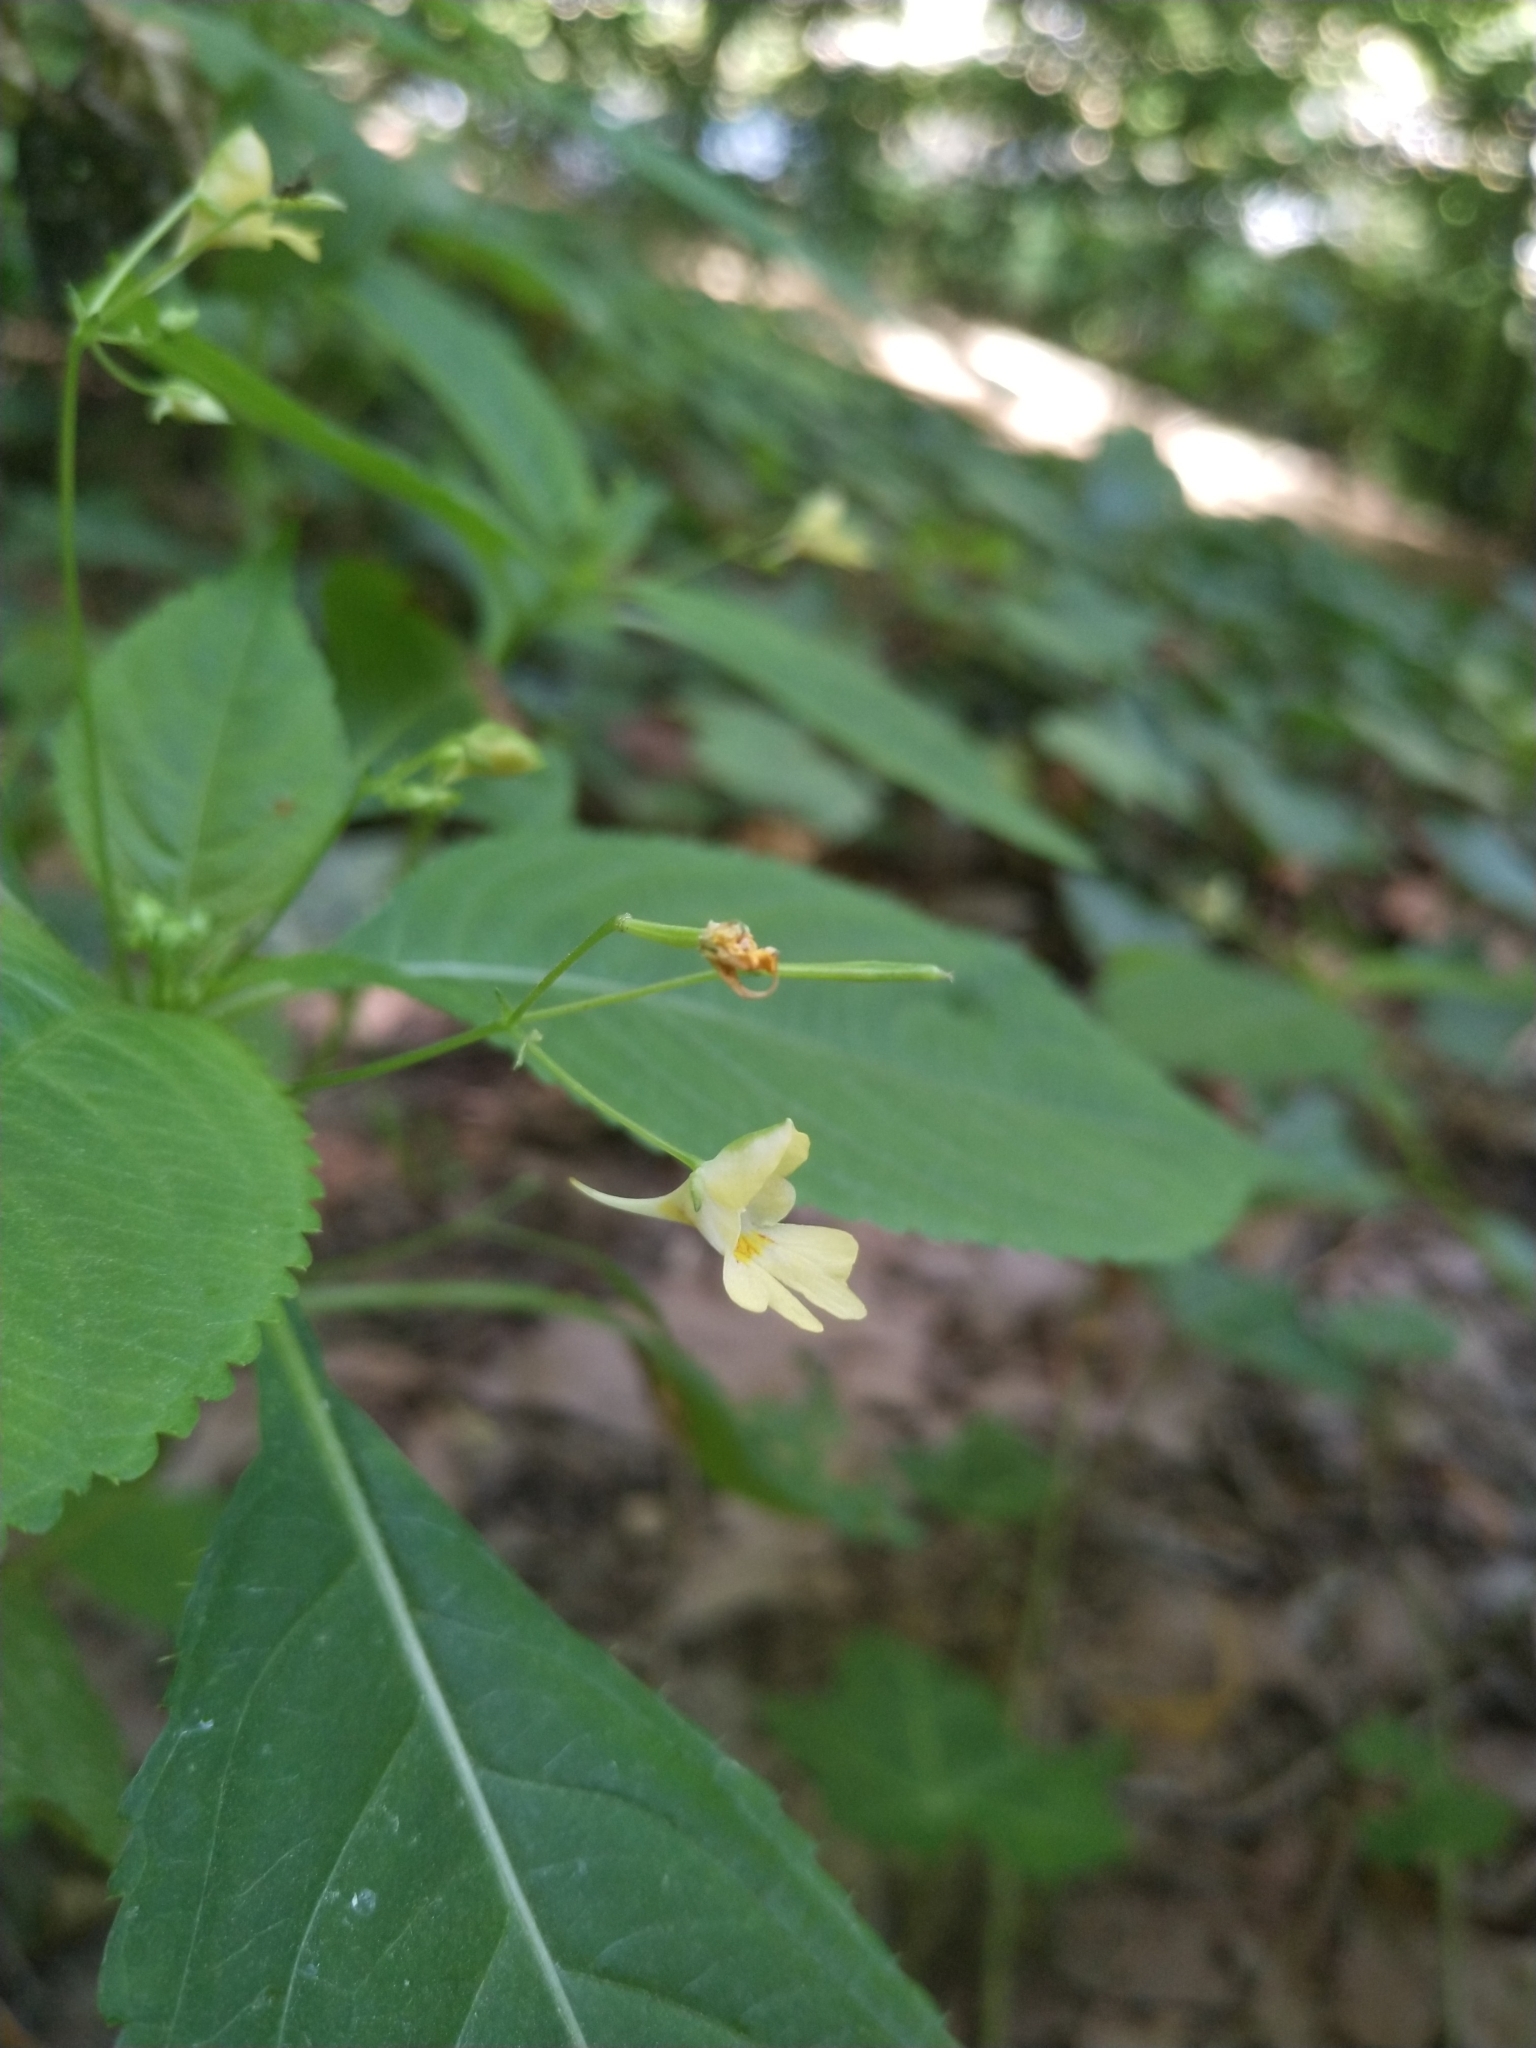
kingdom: Plantae
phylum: Tracheophyta
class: Magnoliopsida
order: Ericales
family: Balsaminaceae
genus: Impatiens
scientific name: Impatiens parviflora
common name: Small balsam
